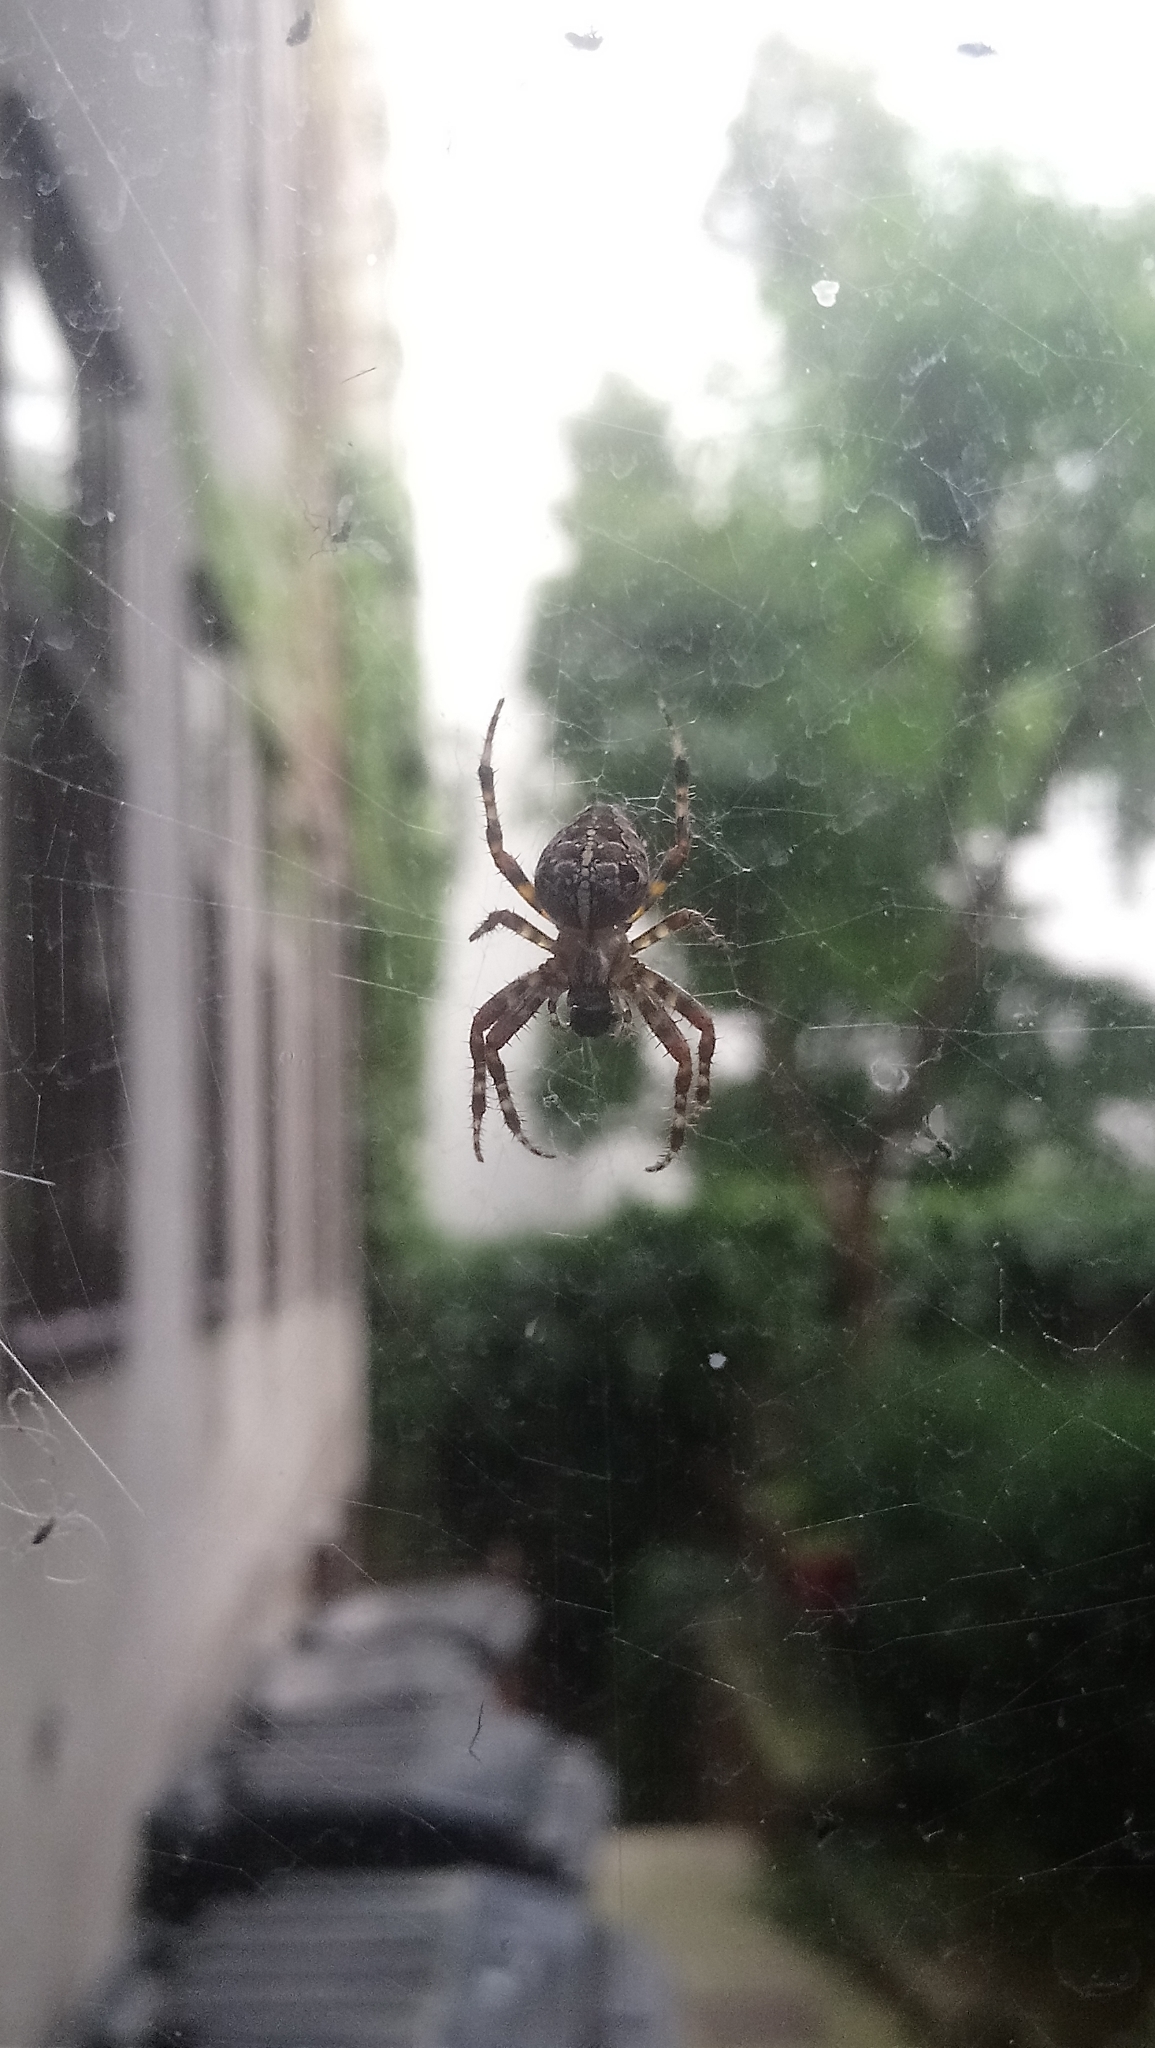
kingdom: Animalia
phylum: Arthropoda
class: Arachnida
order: Araneae
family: Araneidae
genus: Araneus
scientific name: Araneus diadematus
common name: Cross orbweaver
